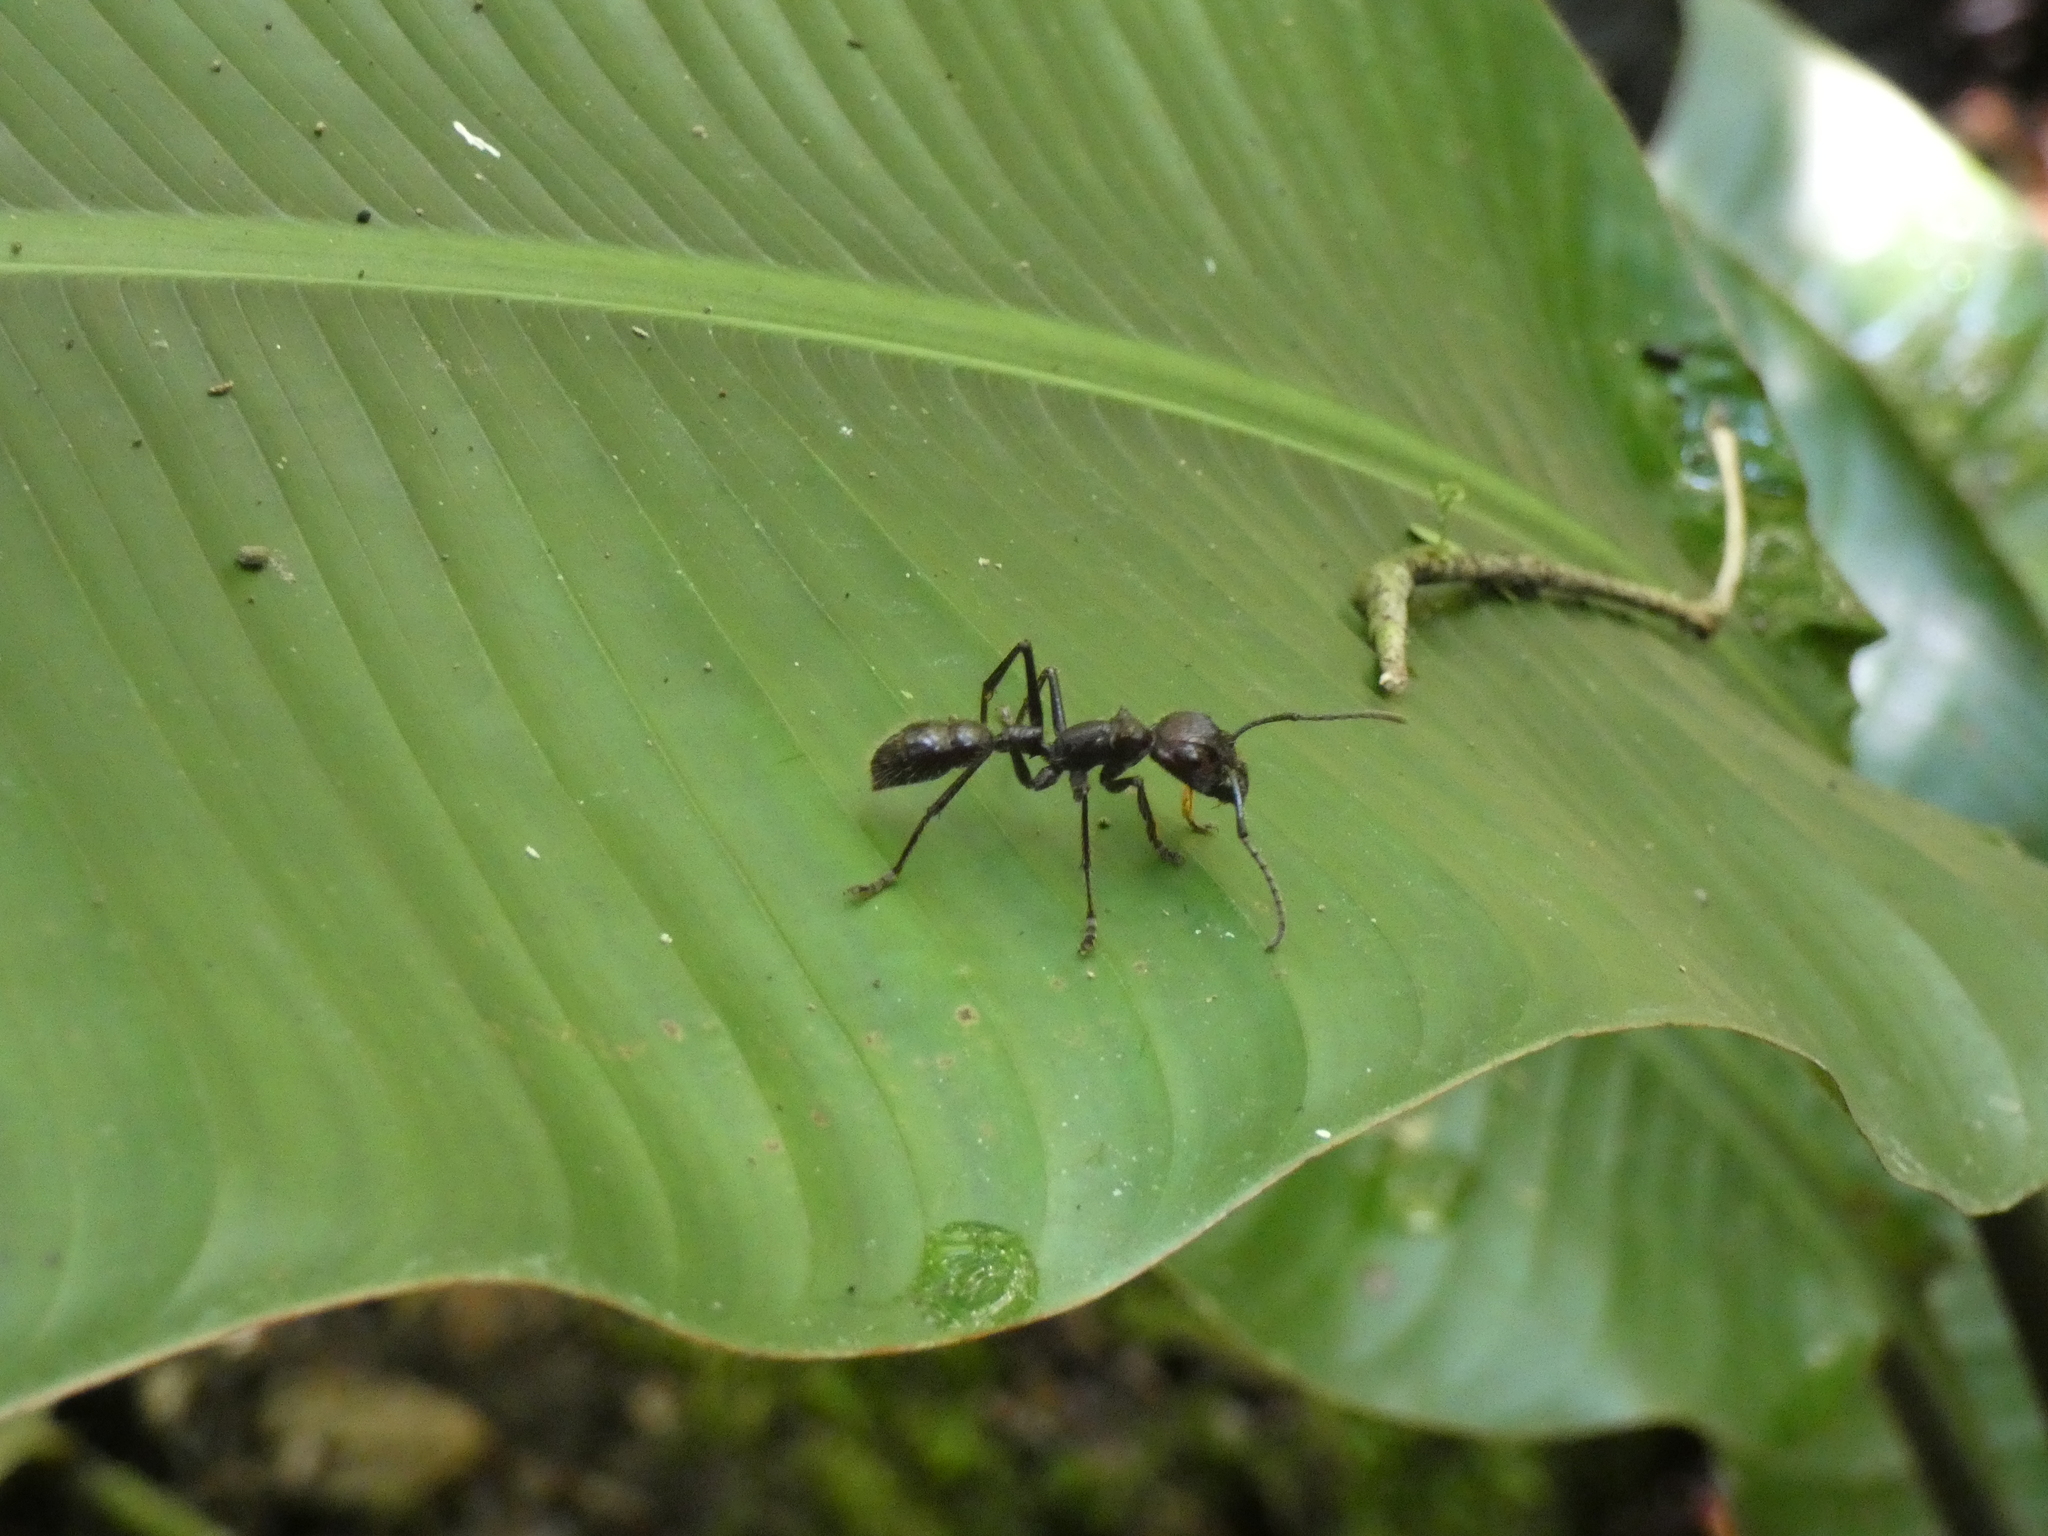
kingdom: Animalia
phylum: Arthropoda
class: Insecta
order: Hymenoptera
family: Formicidae
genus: Paraponera
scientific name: Paraponera clavata
